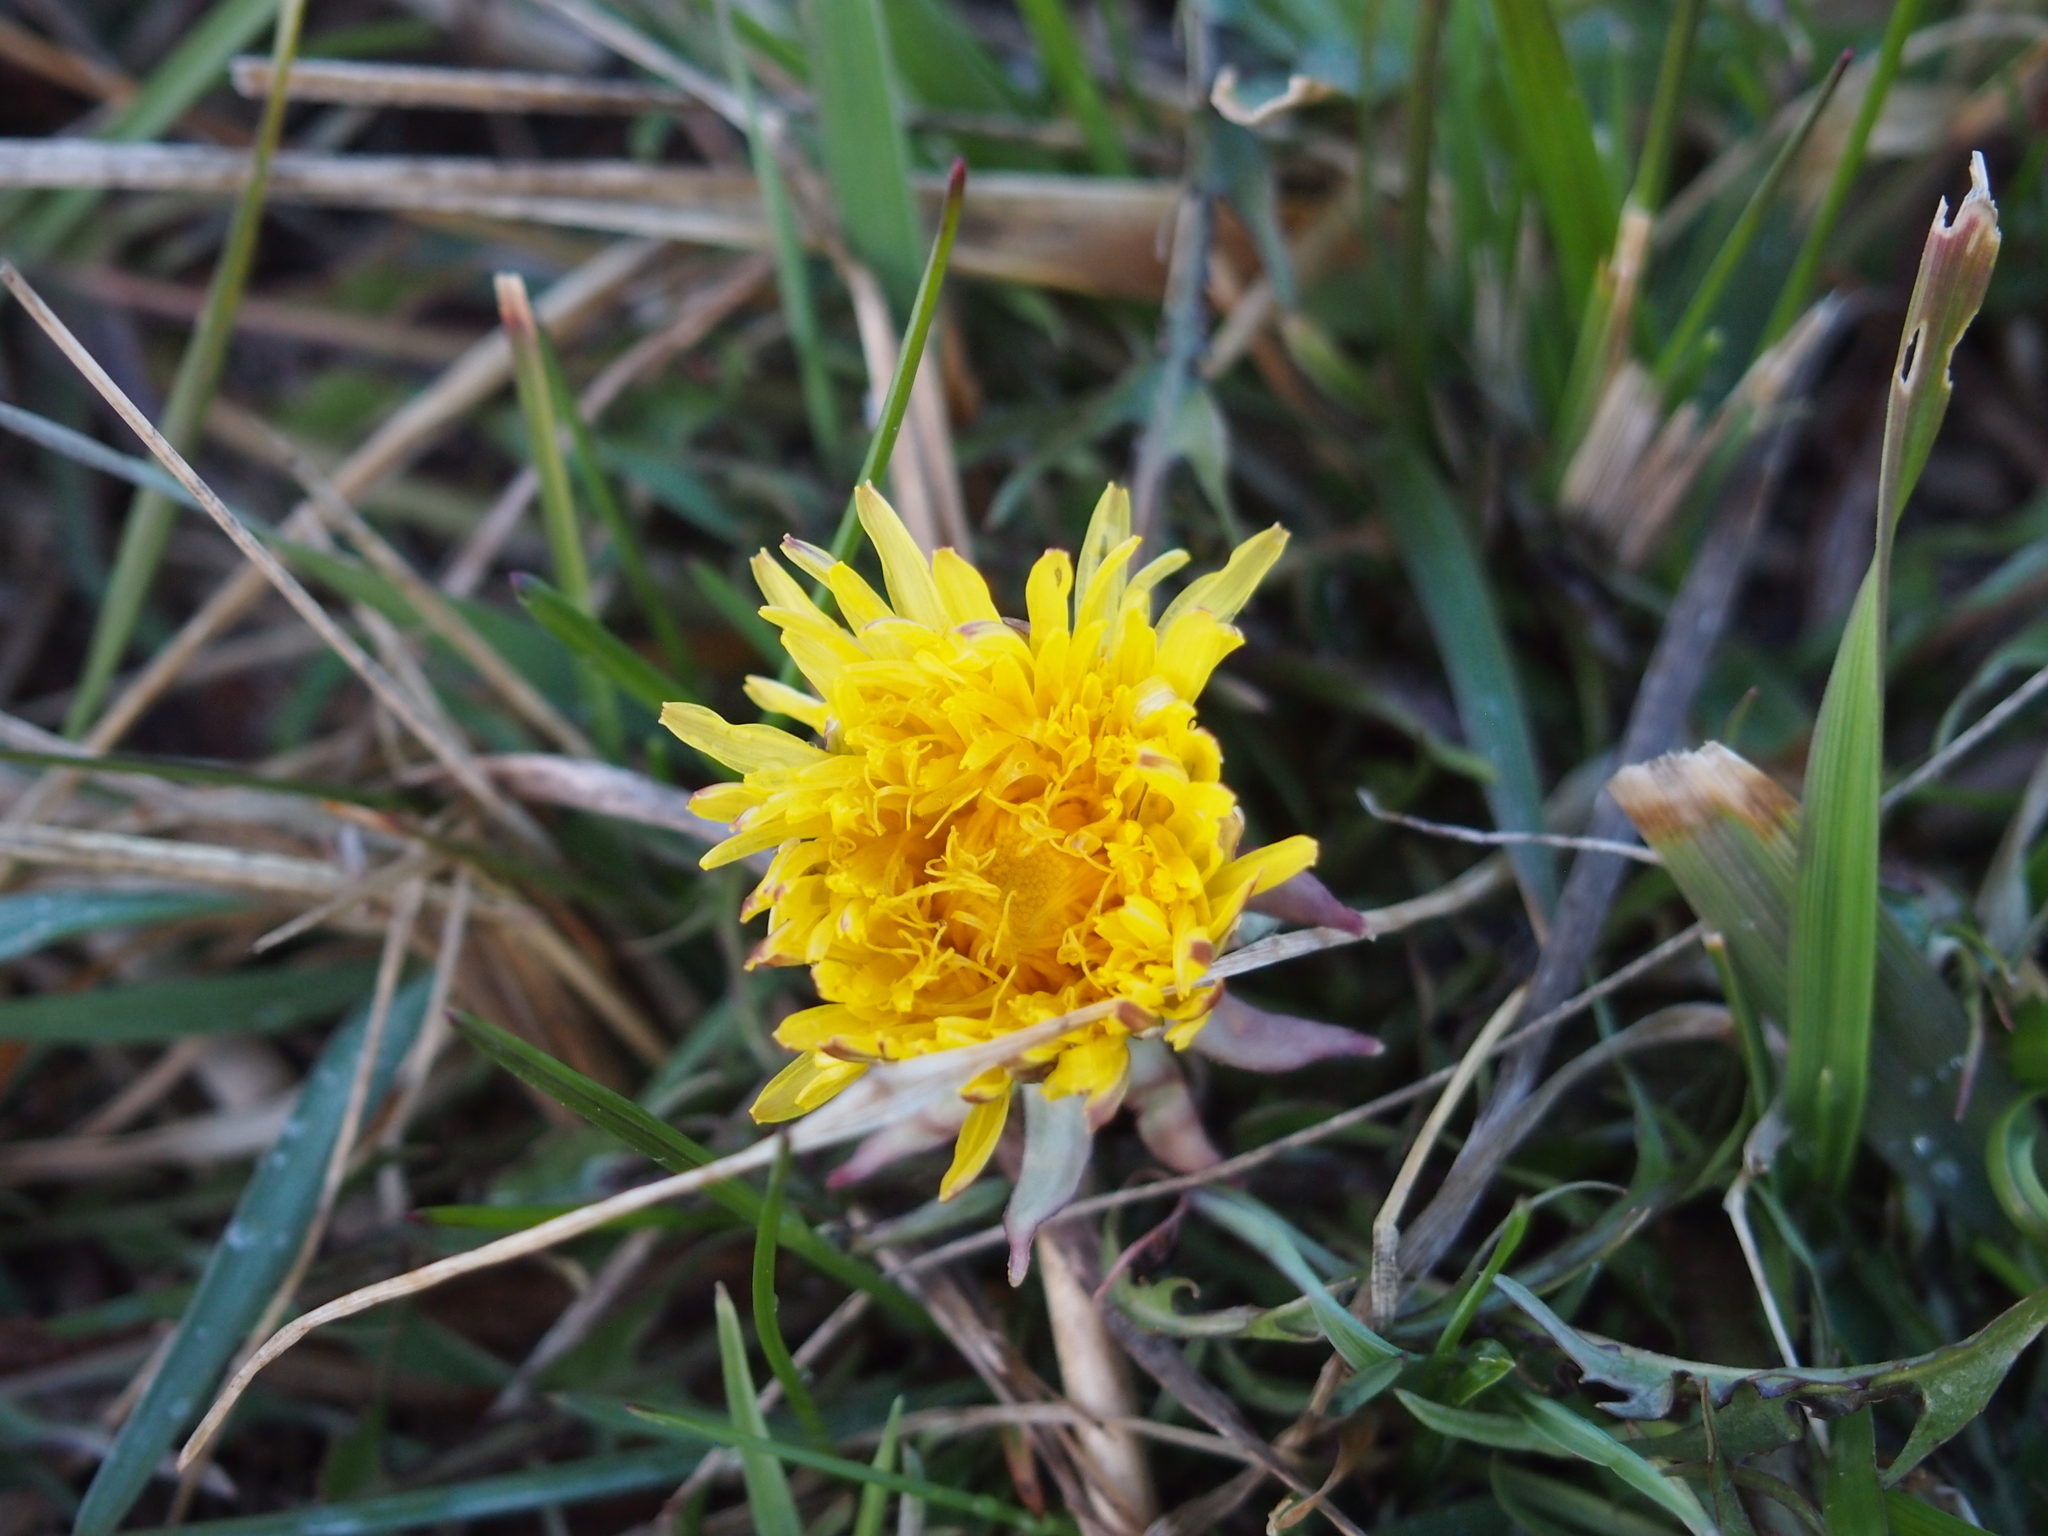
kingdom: Plantae
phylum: Tracheophyta
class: Magnoliopsida
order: Asterales
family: Asteraceae
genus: Taraxacum
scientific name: Taraxacum officinale
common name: Common dandelion
